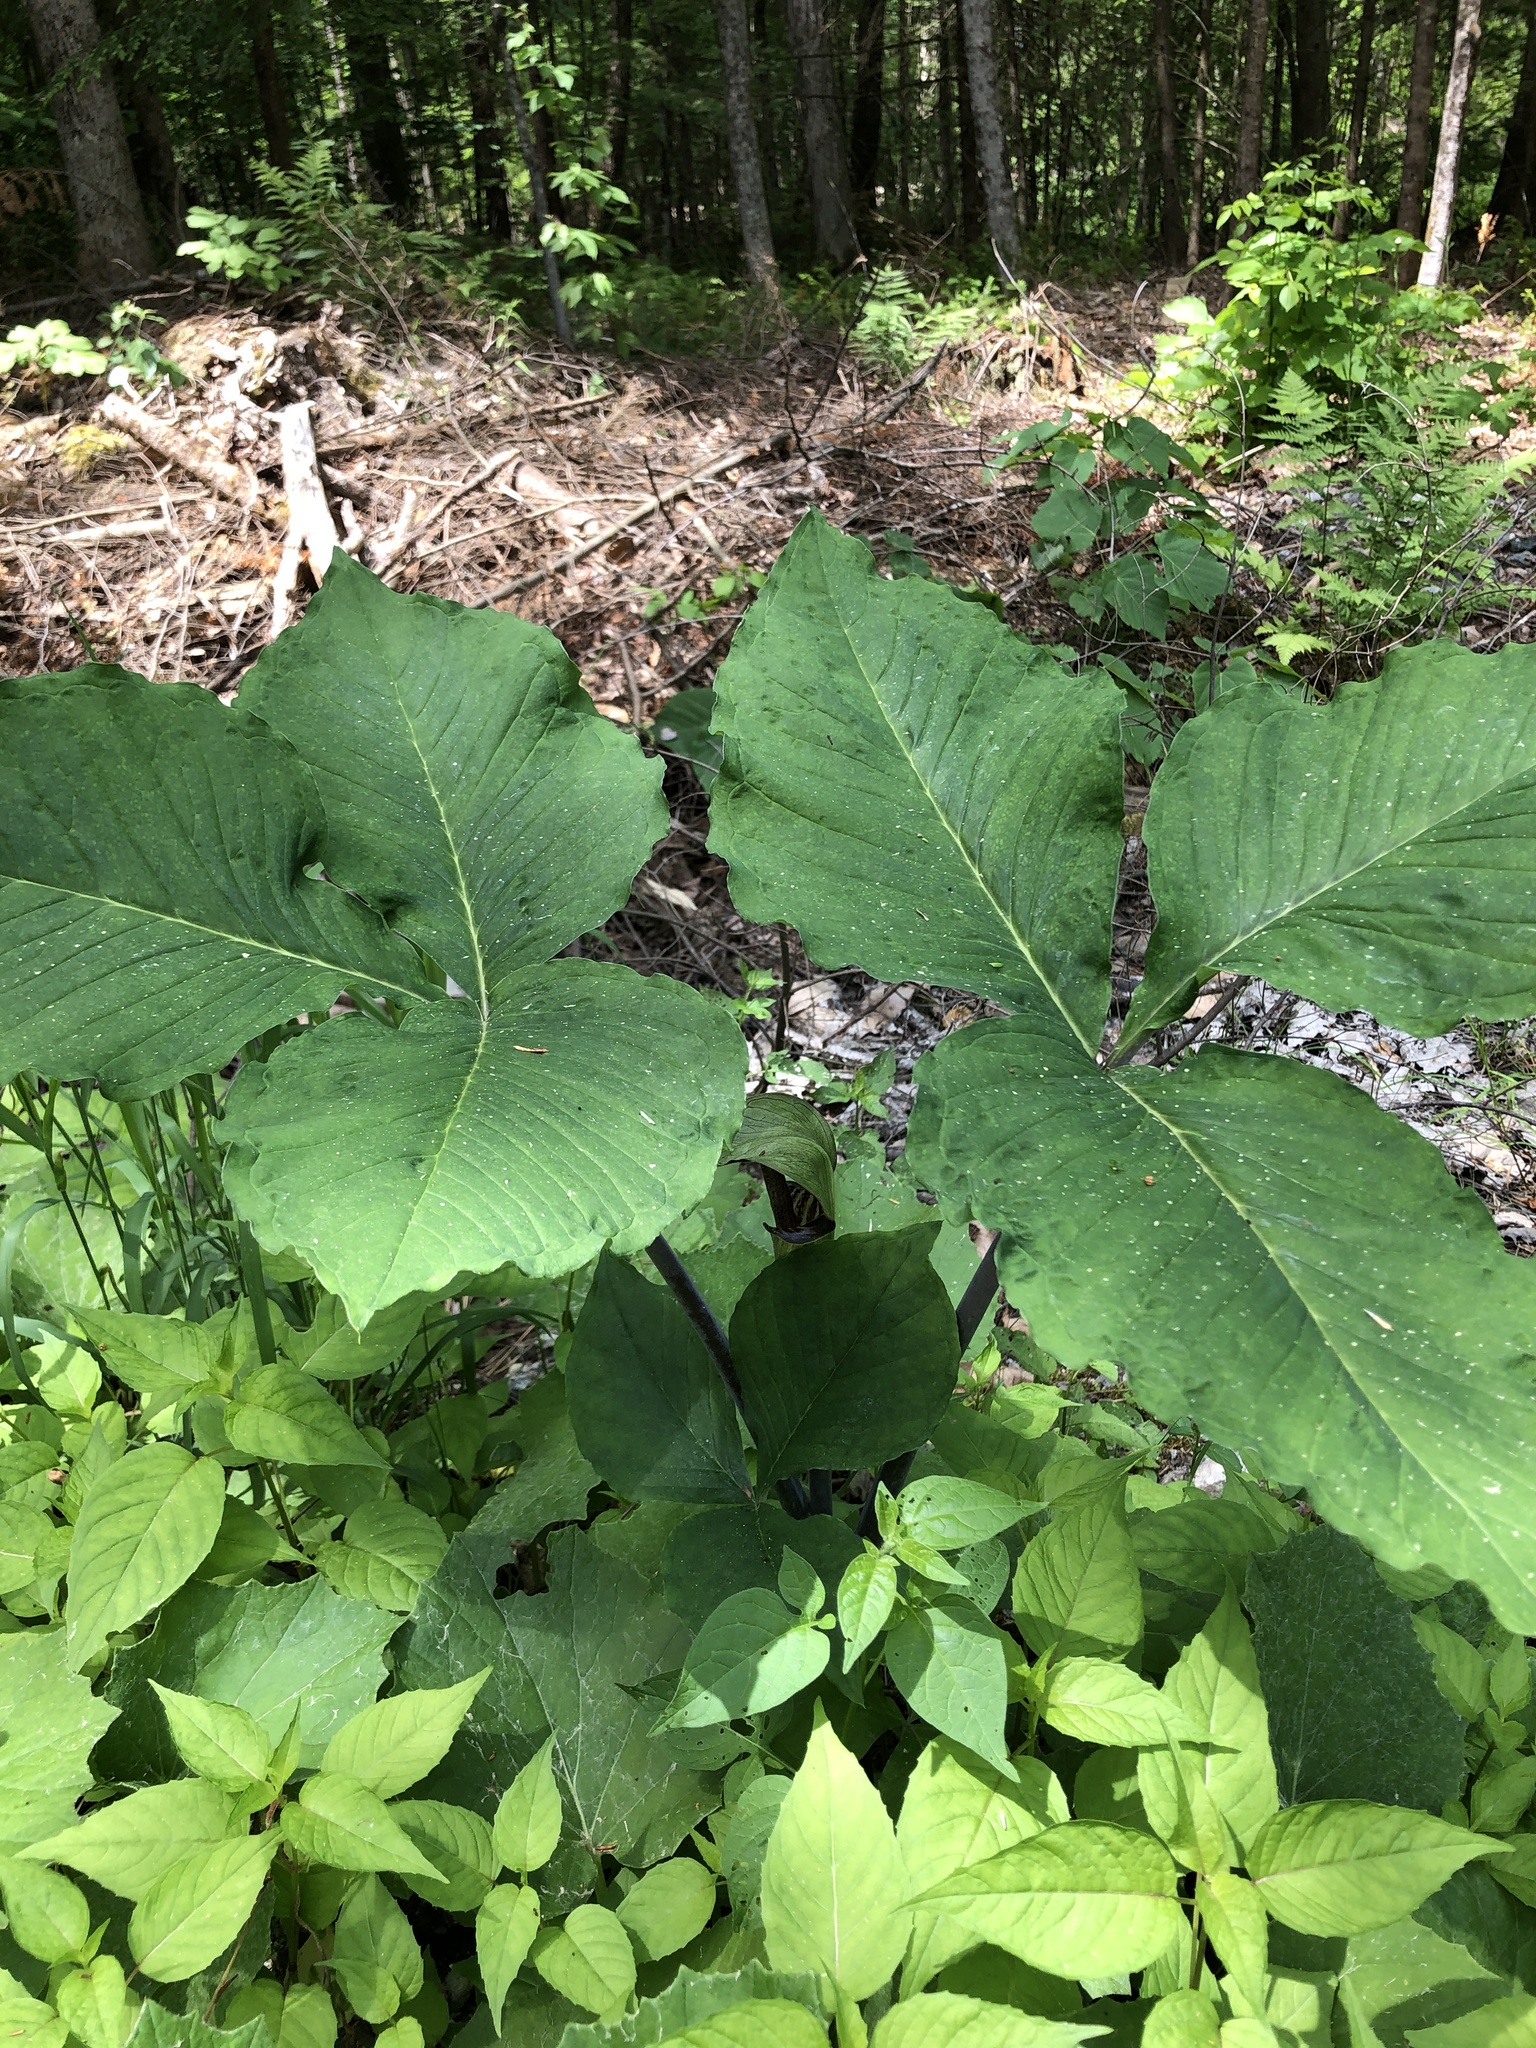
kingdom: Plantae
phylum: Tracheophyta
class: Liliopsida
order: Alismatales
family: Araceae
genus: Arisaema
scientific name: Arisaema triphyllum
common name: Jack-in-the-pulpit
